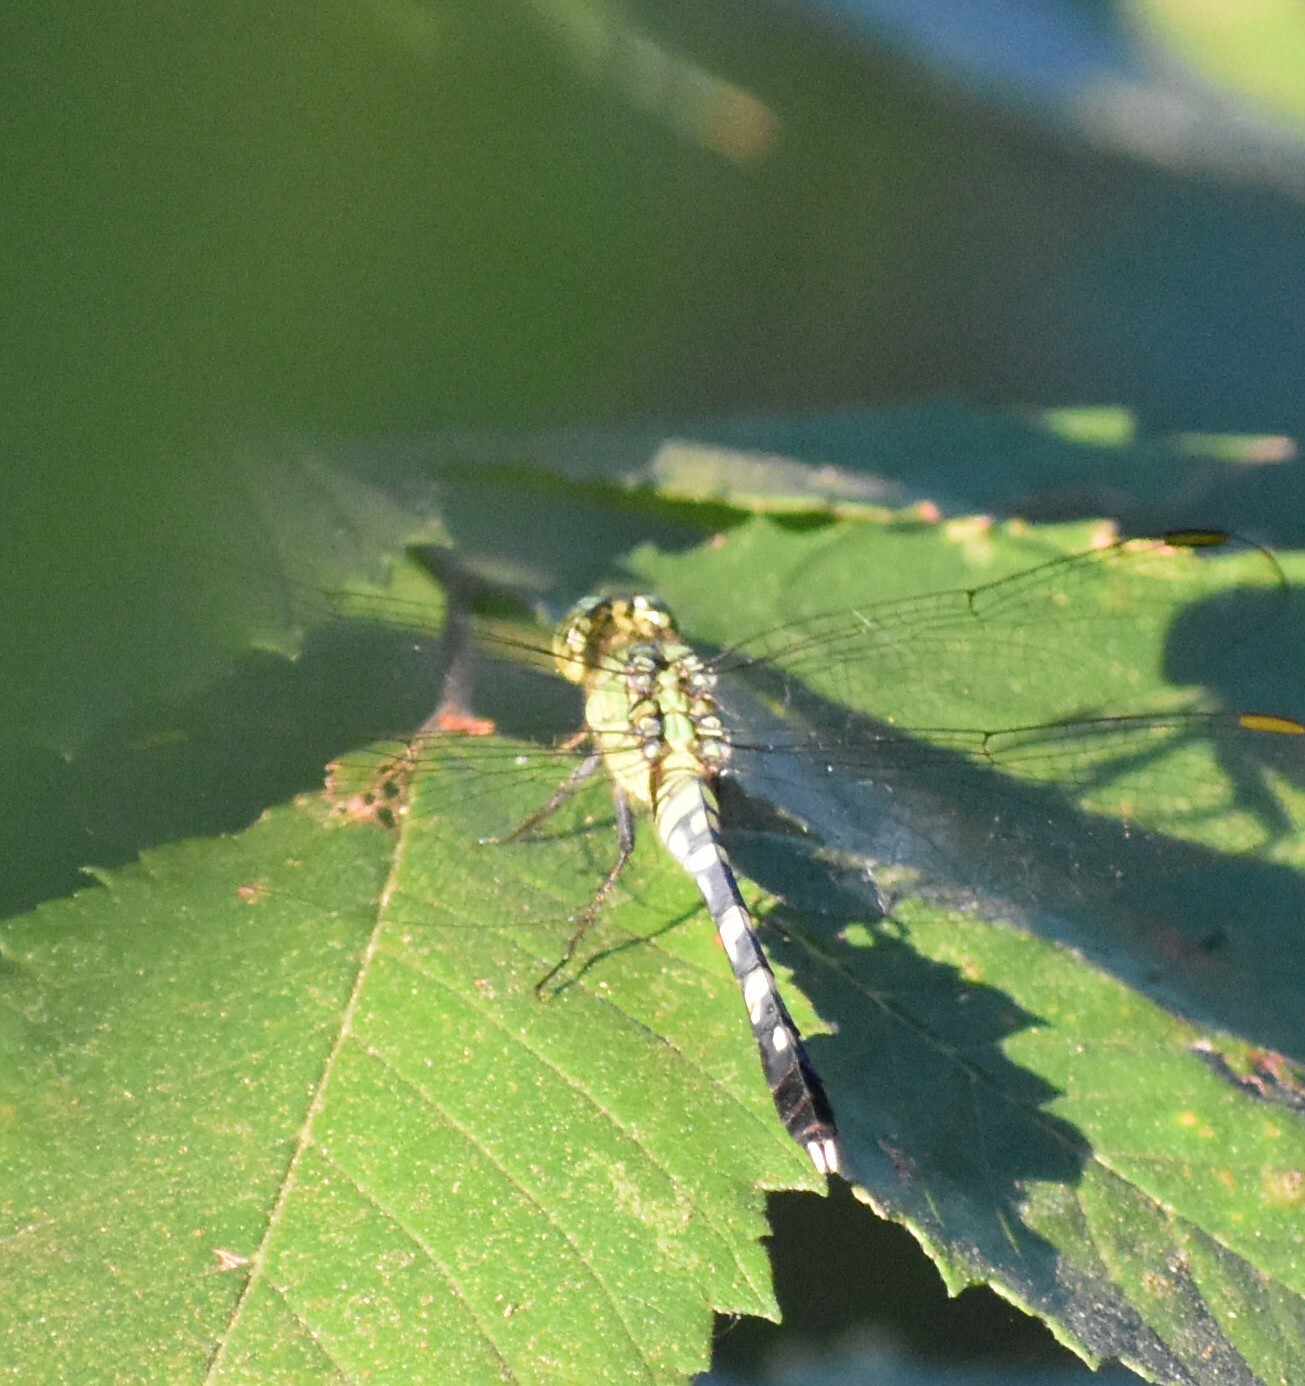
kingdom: Animalia
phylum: Arthropoda
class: Insecta
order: Odonata
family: Libellulidae
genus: Erythemis
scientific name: Erythemis simplicicollis
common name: Eastern pondhawk
